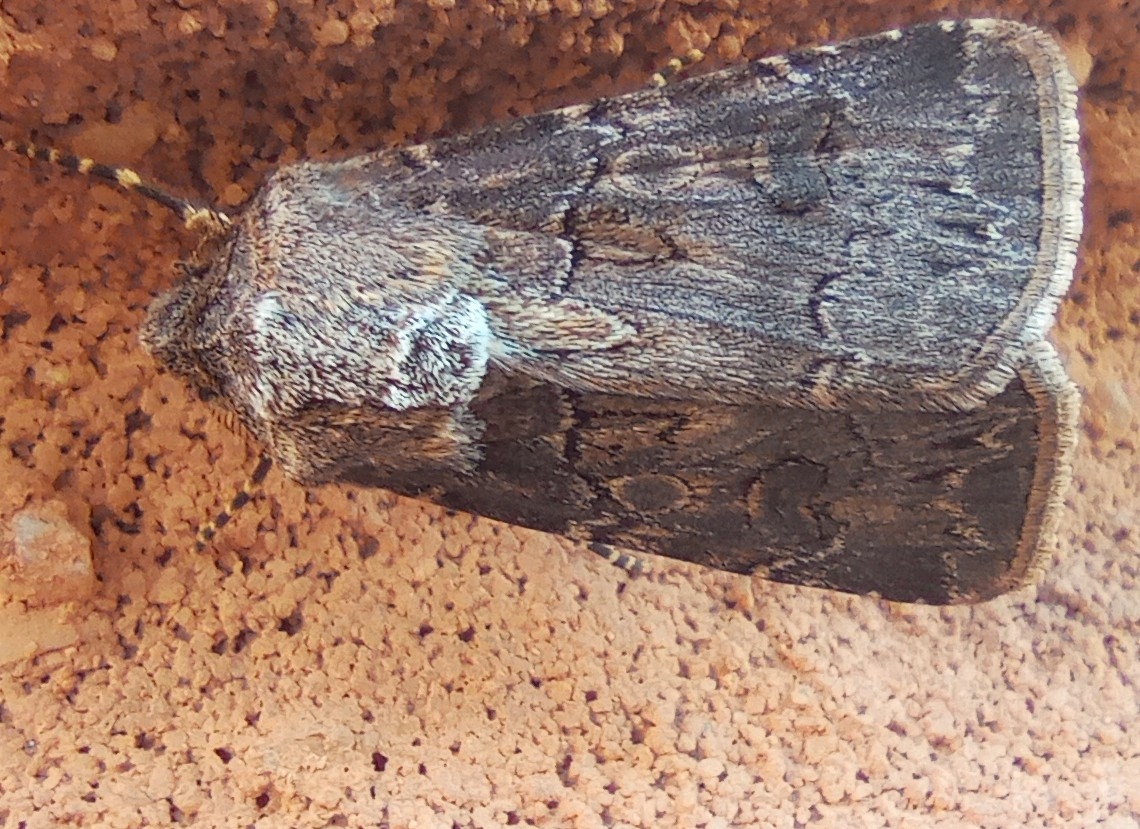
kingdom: Animalia
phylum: Arthropoda
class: Insecta
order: Lepidoptera
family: Noctuidae
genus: Agrotis
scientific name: Agrotis bigramma
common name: Great dart
